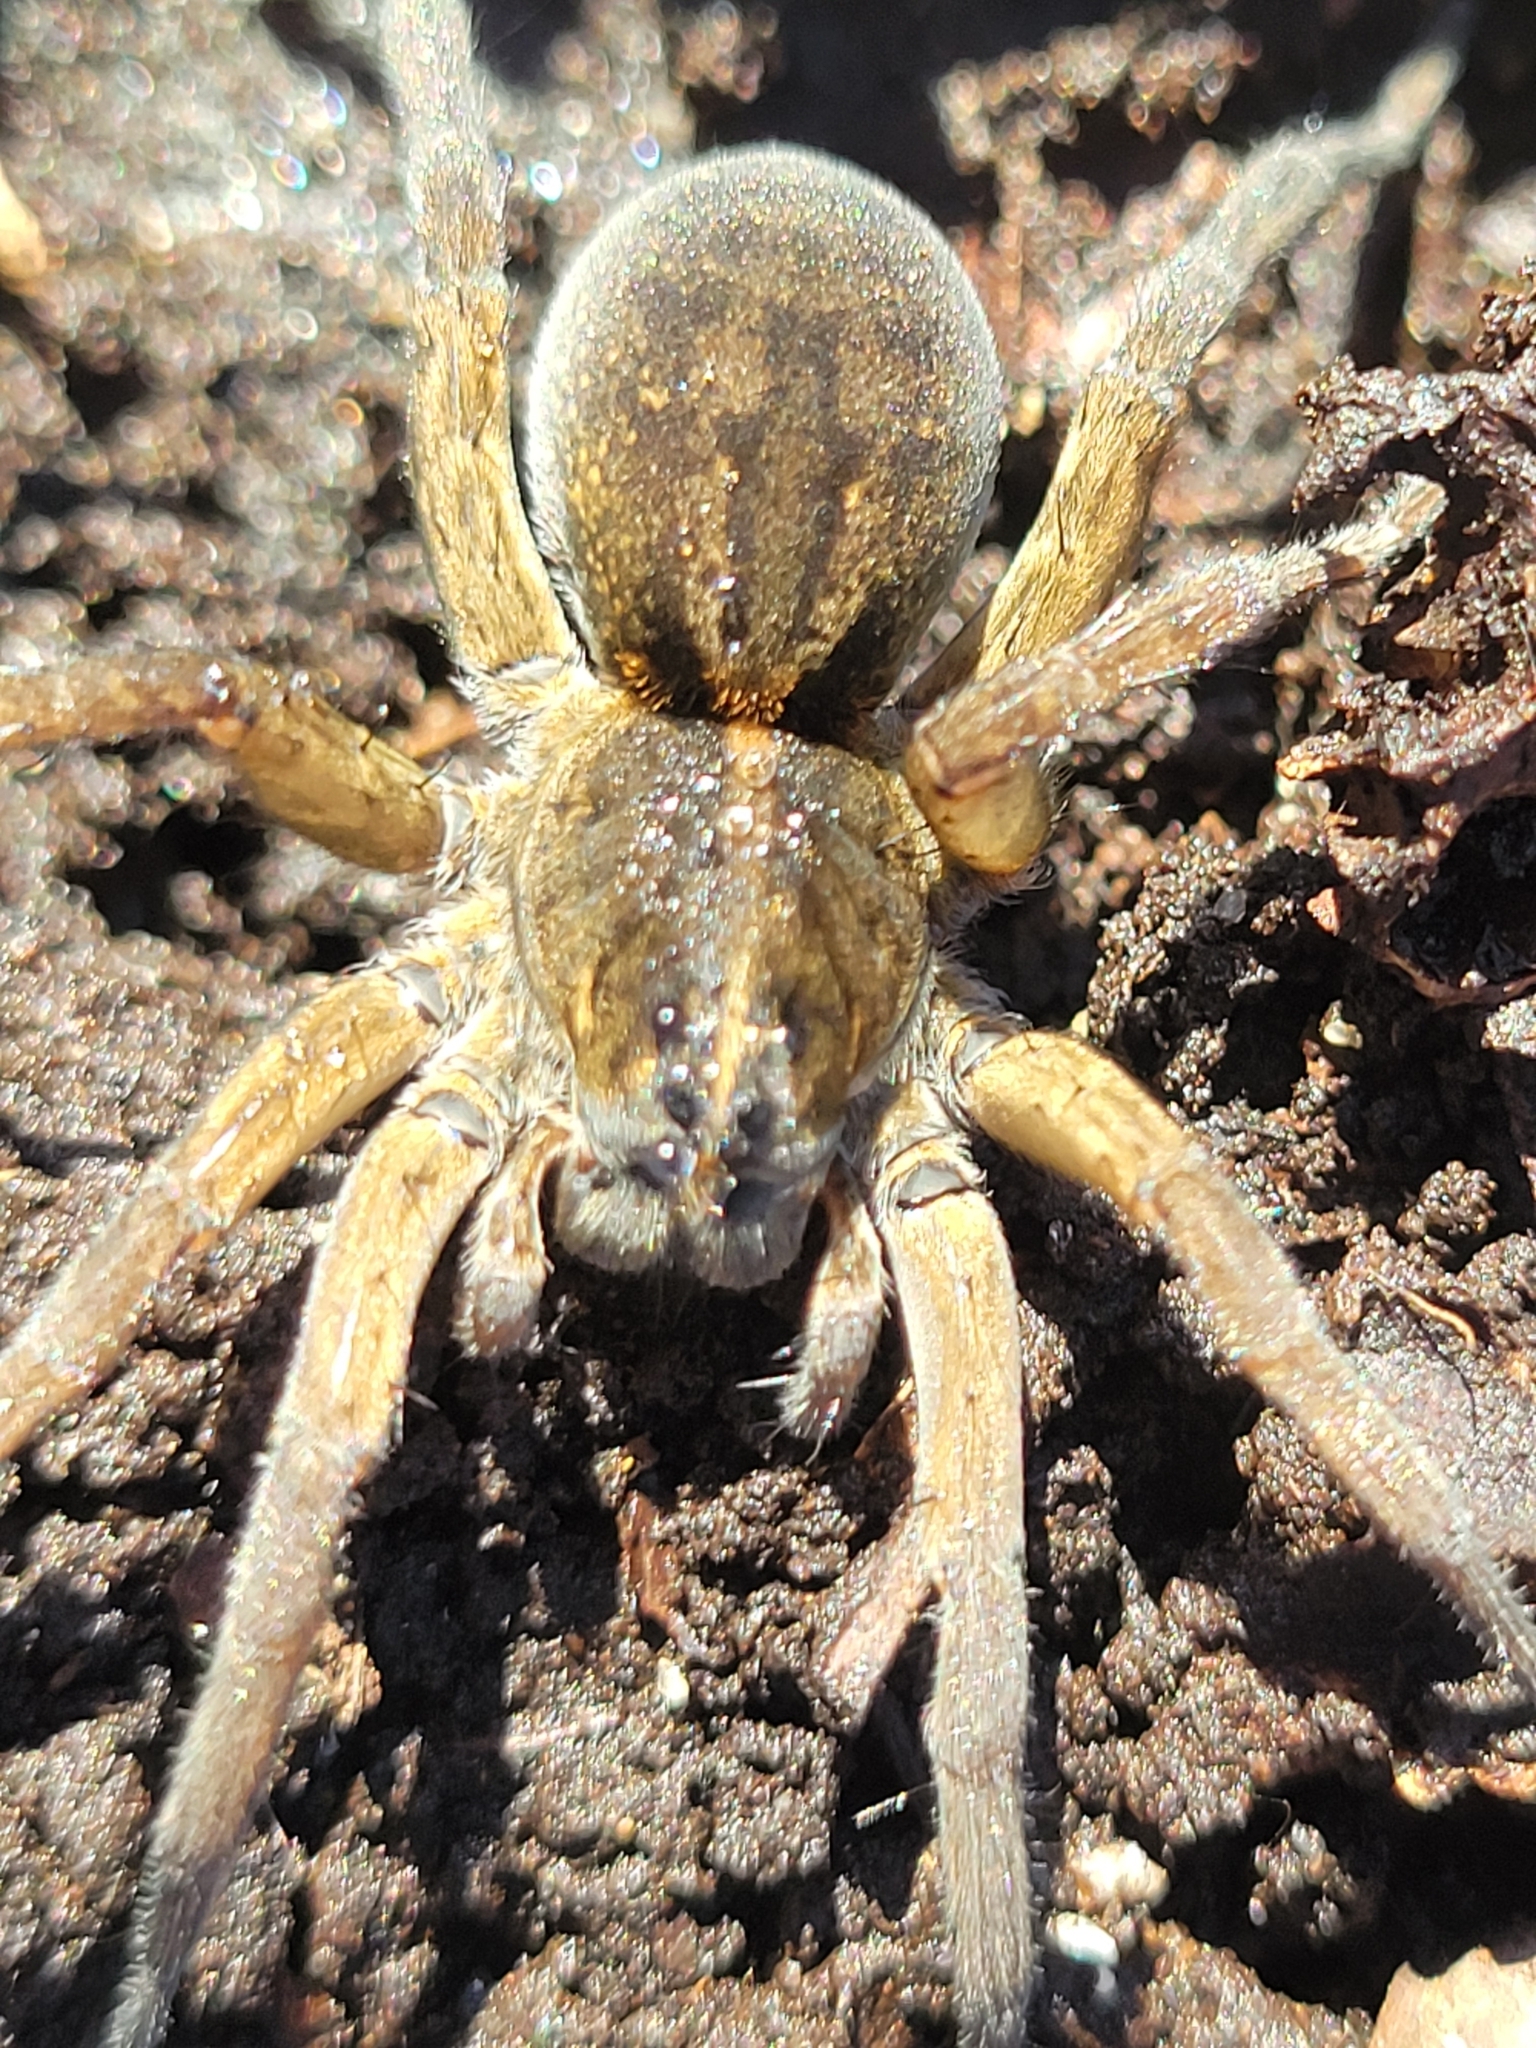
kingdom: Animalia
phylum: Arthropoda
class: Arachnida
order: Araneae
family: Lycosidae
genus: Tigrosa
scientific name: Tigrosa helluo
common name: Wetland giant wolf spider
